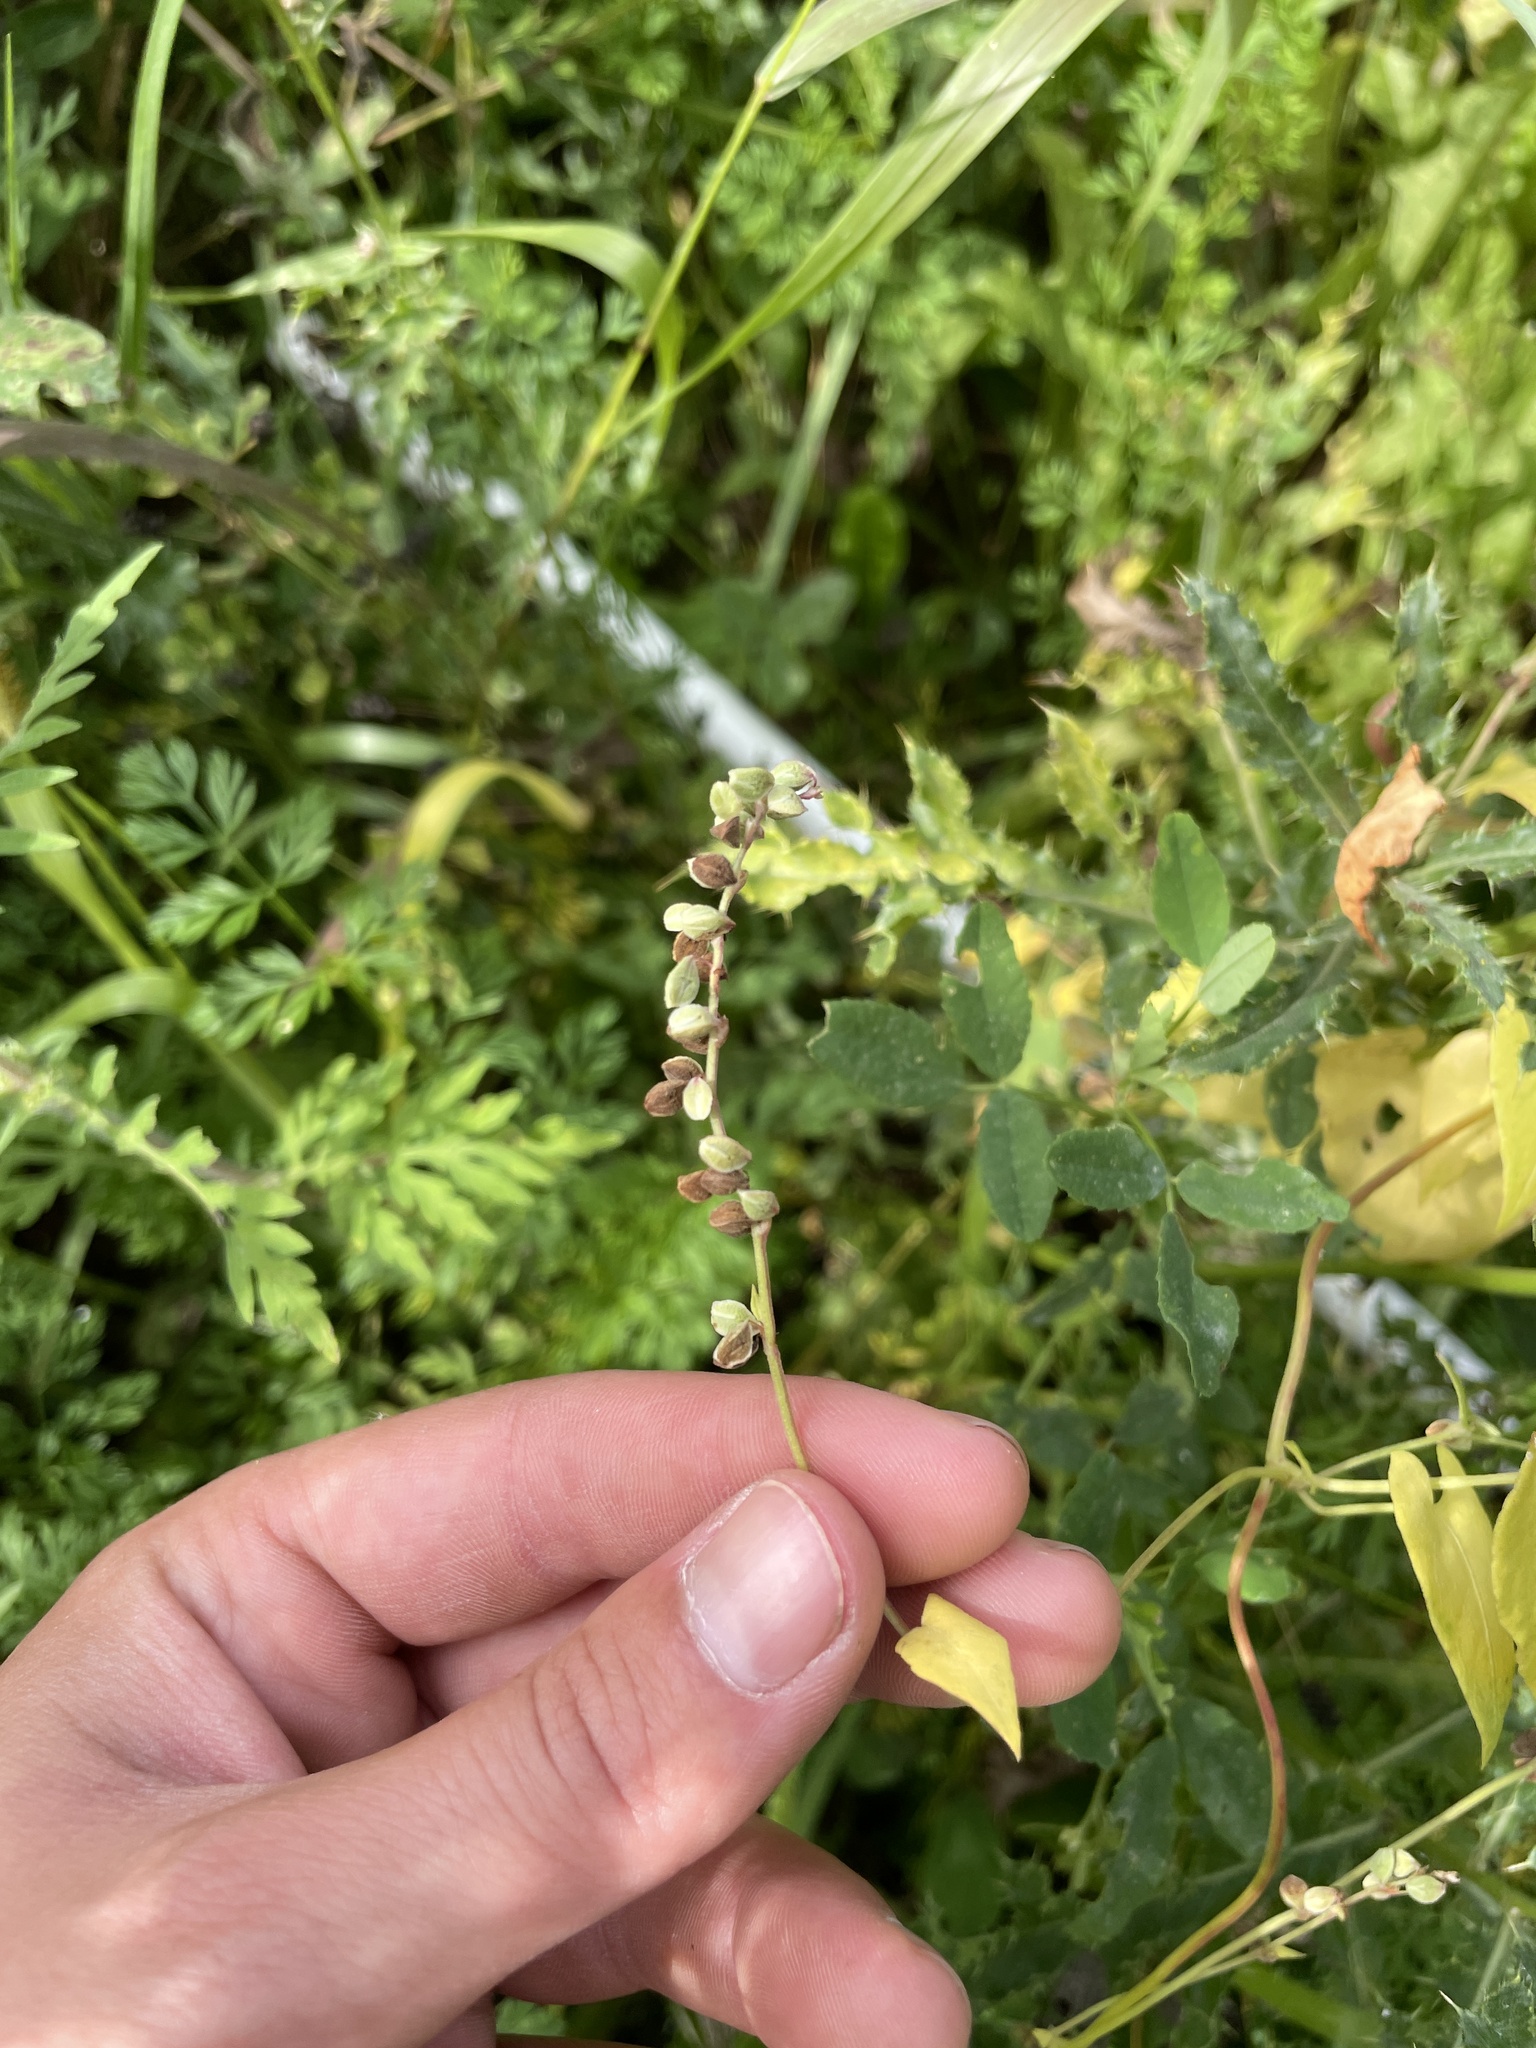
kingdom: Plantae
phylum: Tracheophyta
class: Magnoliopsida
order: Caryophyllales
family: Polygonaceae
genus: Fallopia
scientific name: Fallopia convolvulus
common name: Black bindweed
